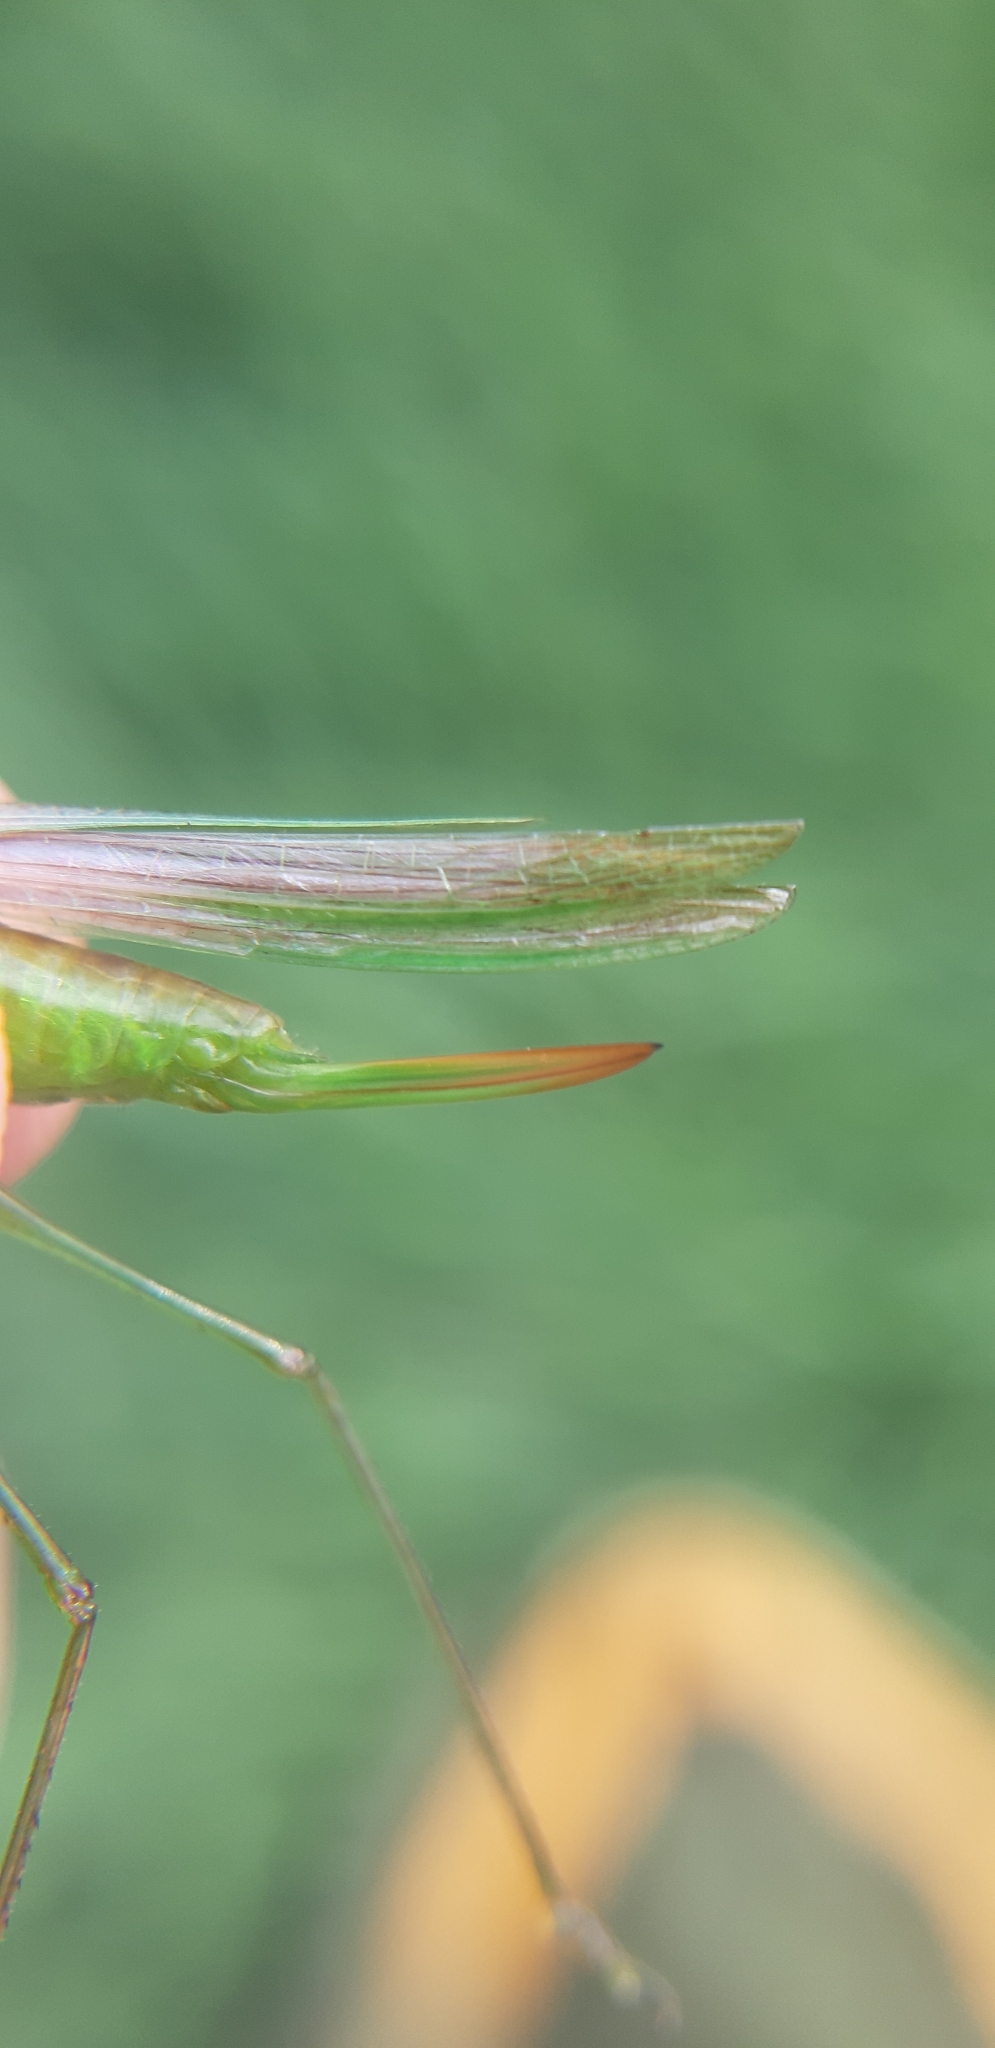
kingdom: Animalia
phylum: Arthropoda
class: Insecta
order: Orthoptera
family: Tettigoniidae
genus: Conocephalus
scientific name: Conocephalus conocephalus
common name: African meadow katydid
